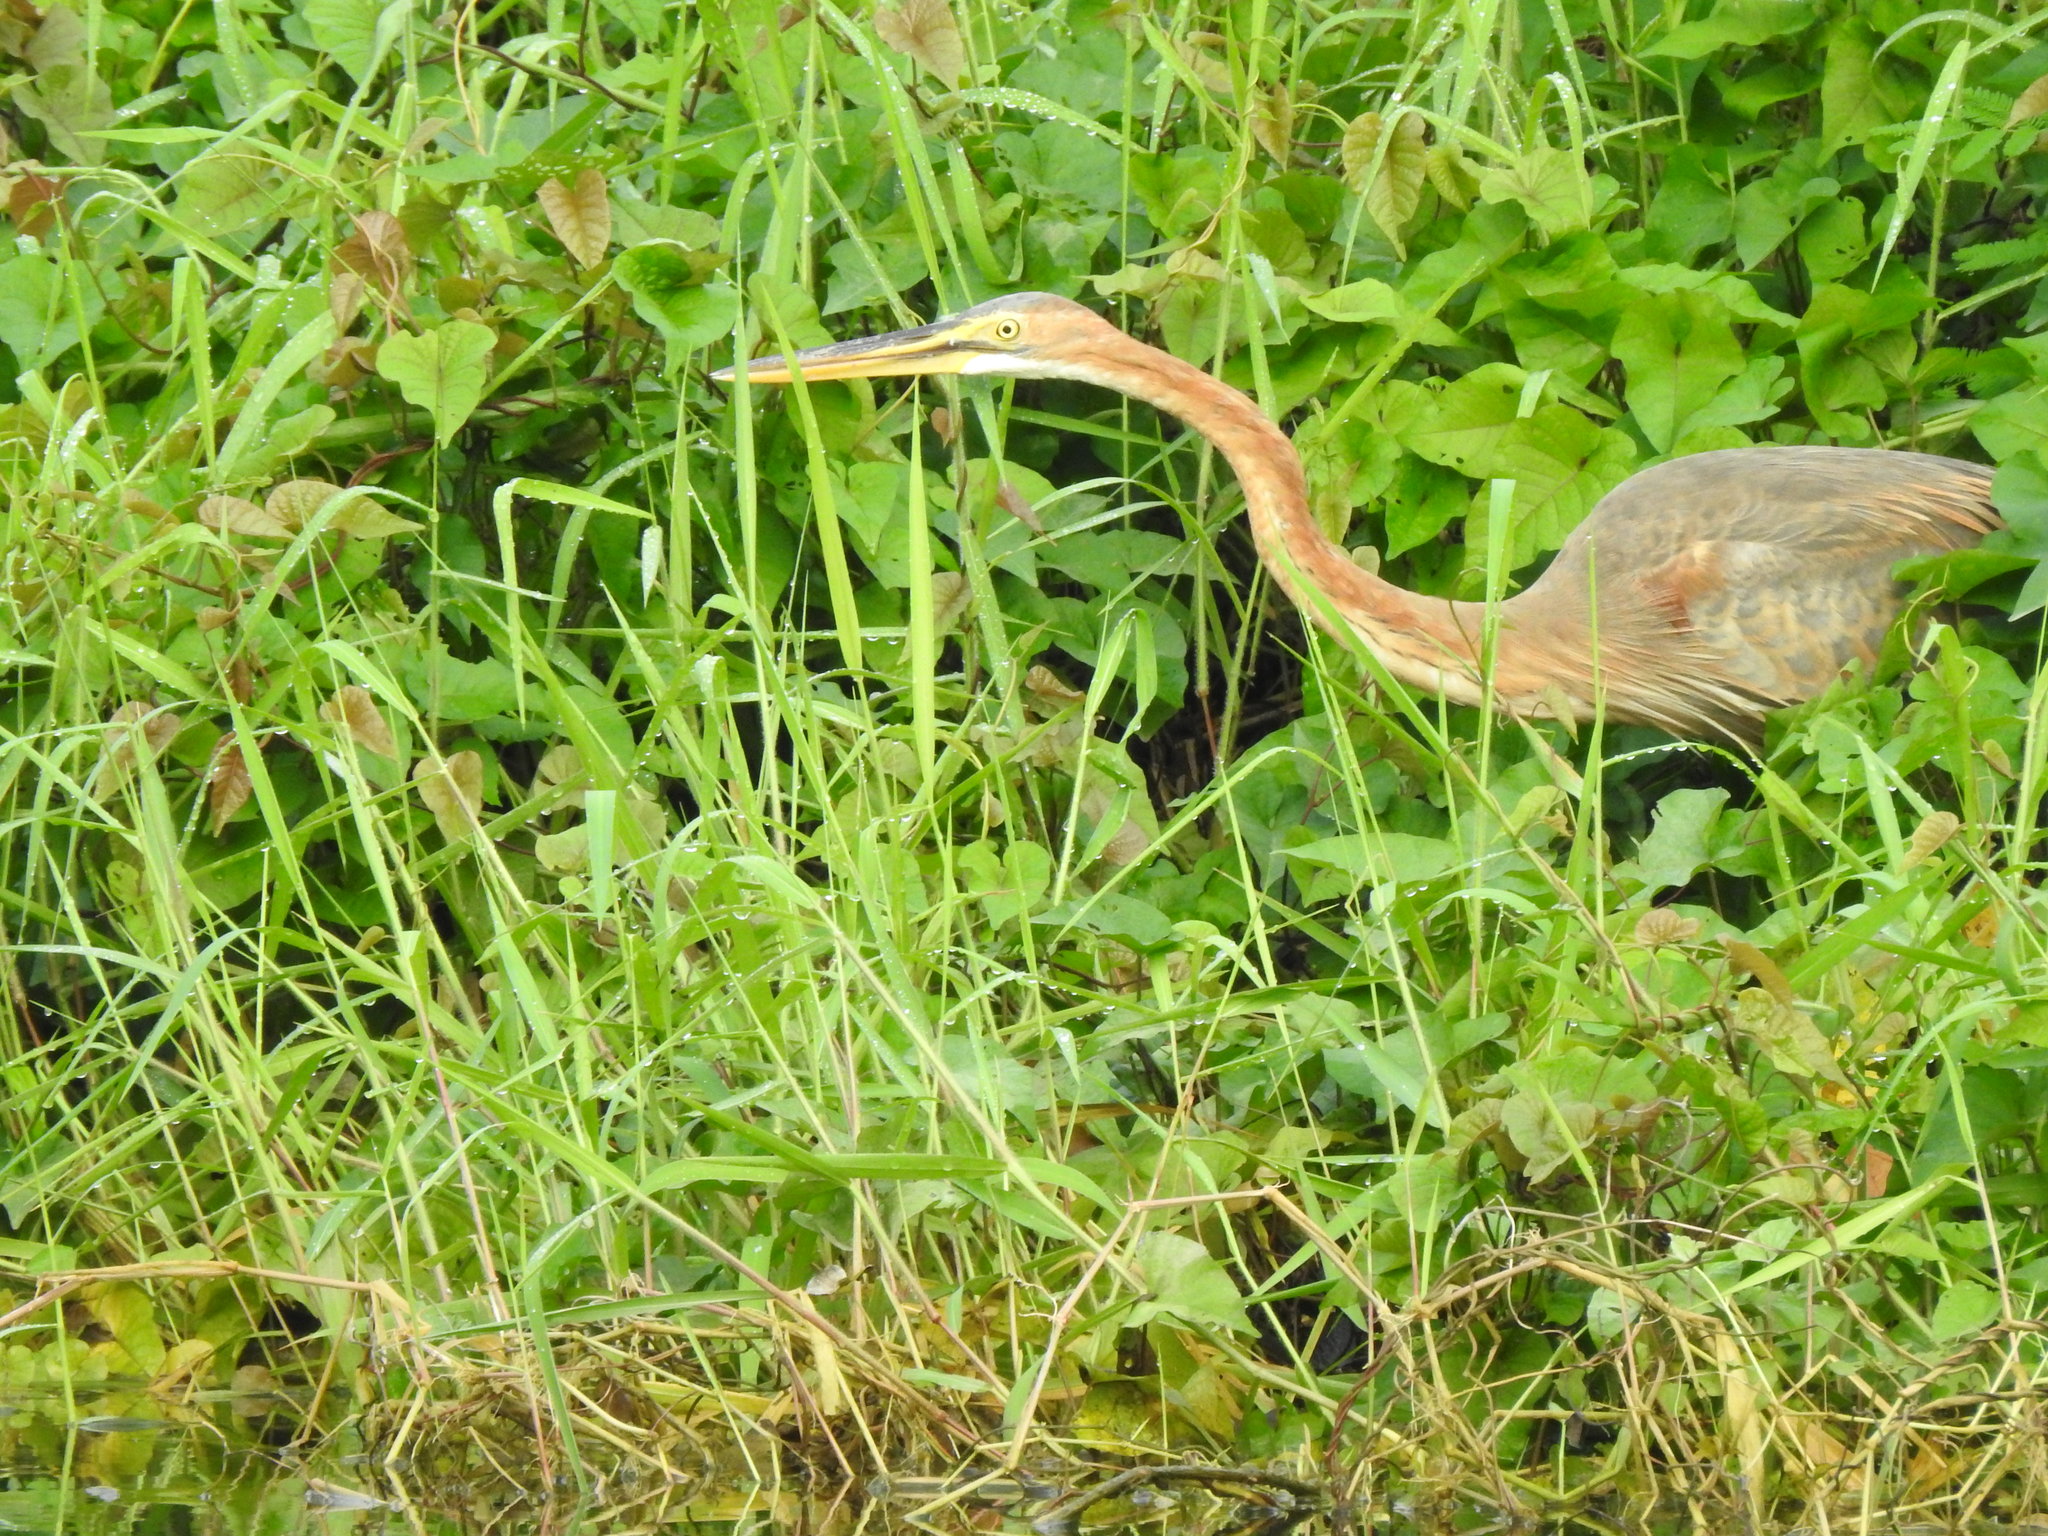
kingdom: Animalia
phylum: Chordata
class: Aves
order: Pelecaniformes
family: Ardeidae
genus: Ardea
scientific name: Ardea purpurea
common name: Purple heron
